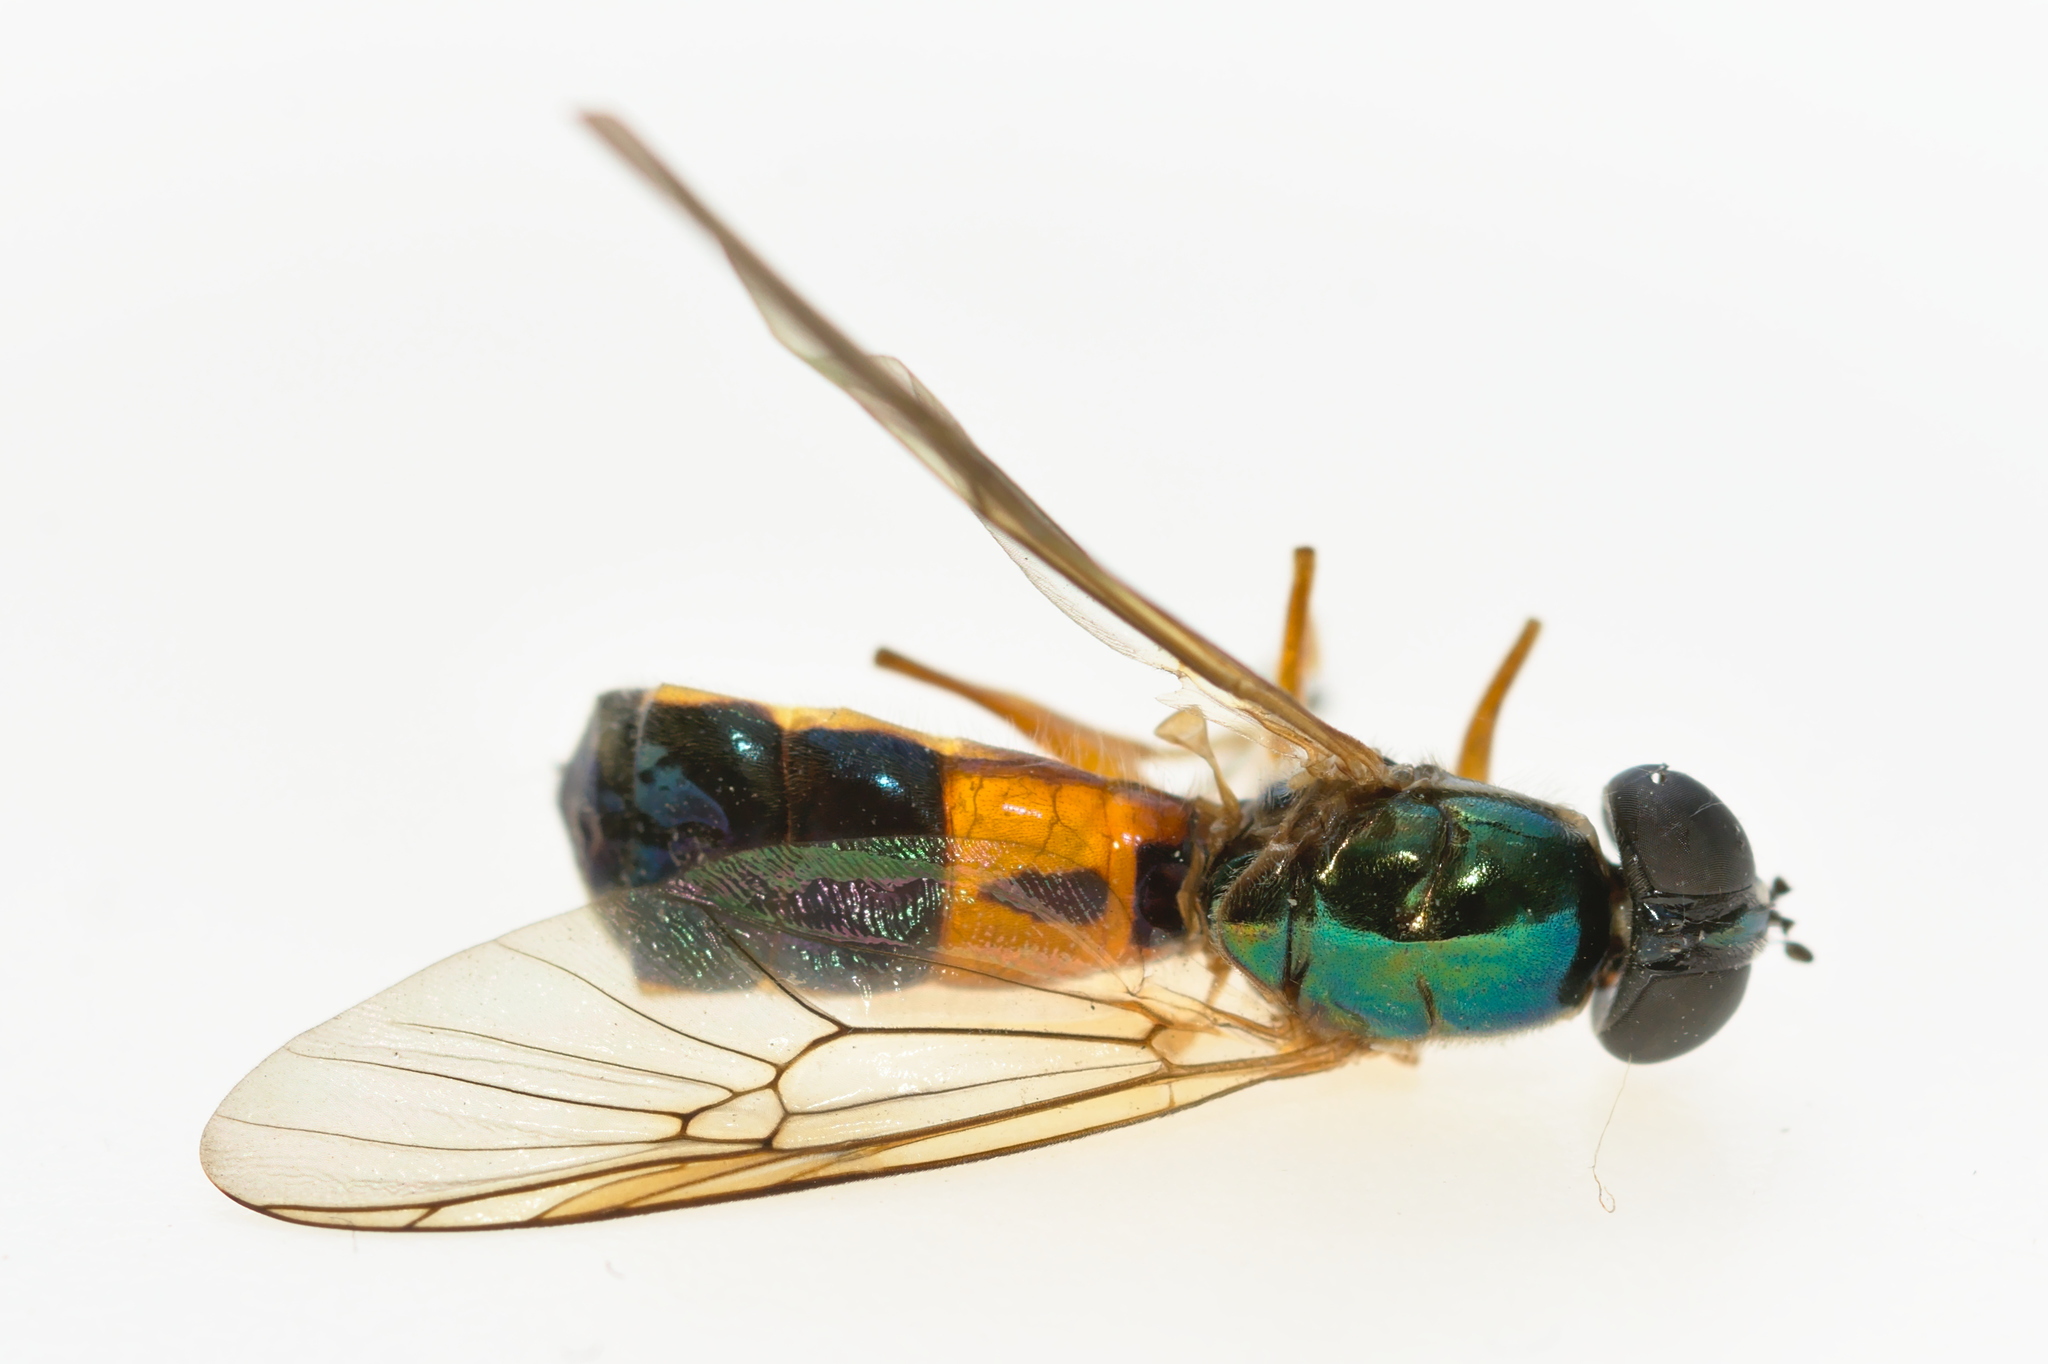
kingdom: Animalia
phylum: Arthropoda
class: Insecta
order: Diptera
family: Stratiomyidae
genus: Sargus
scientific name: Sargus bipunctatus
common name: Twin-spot centurion
